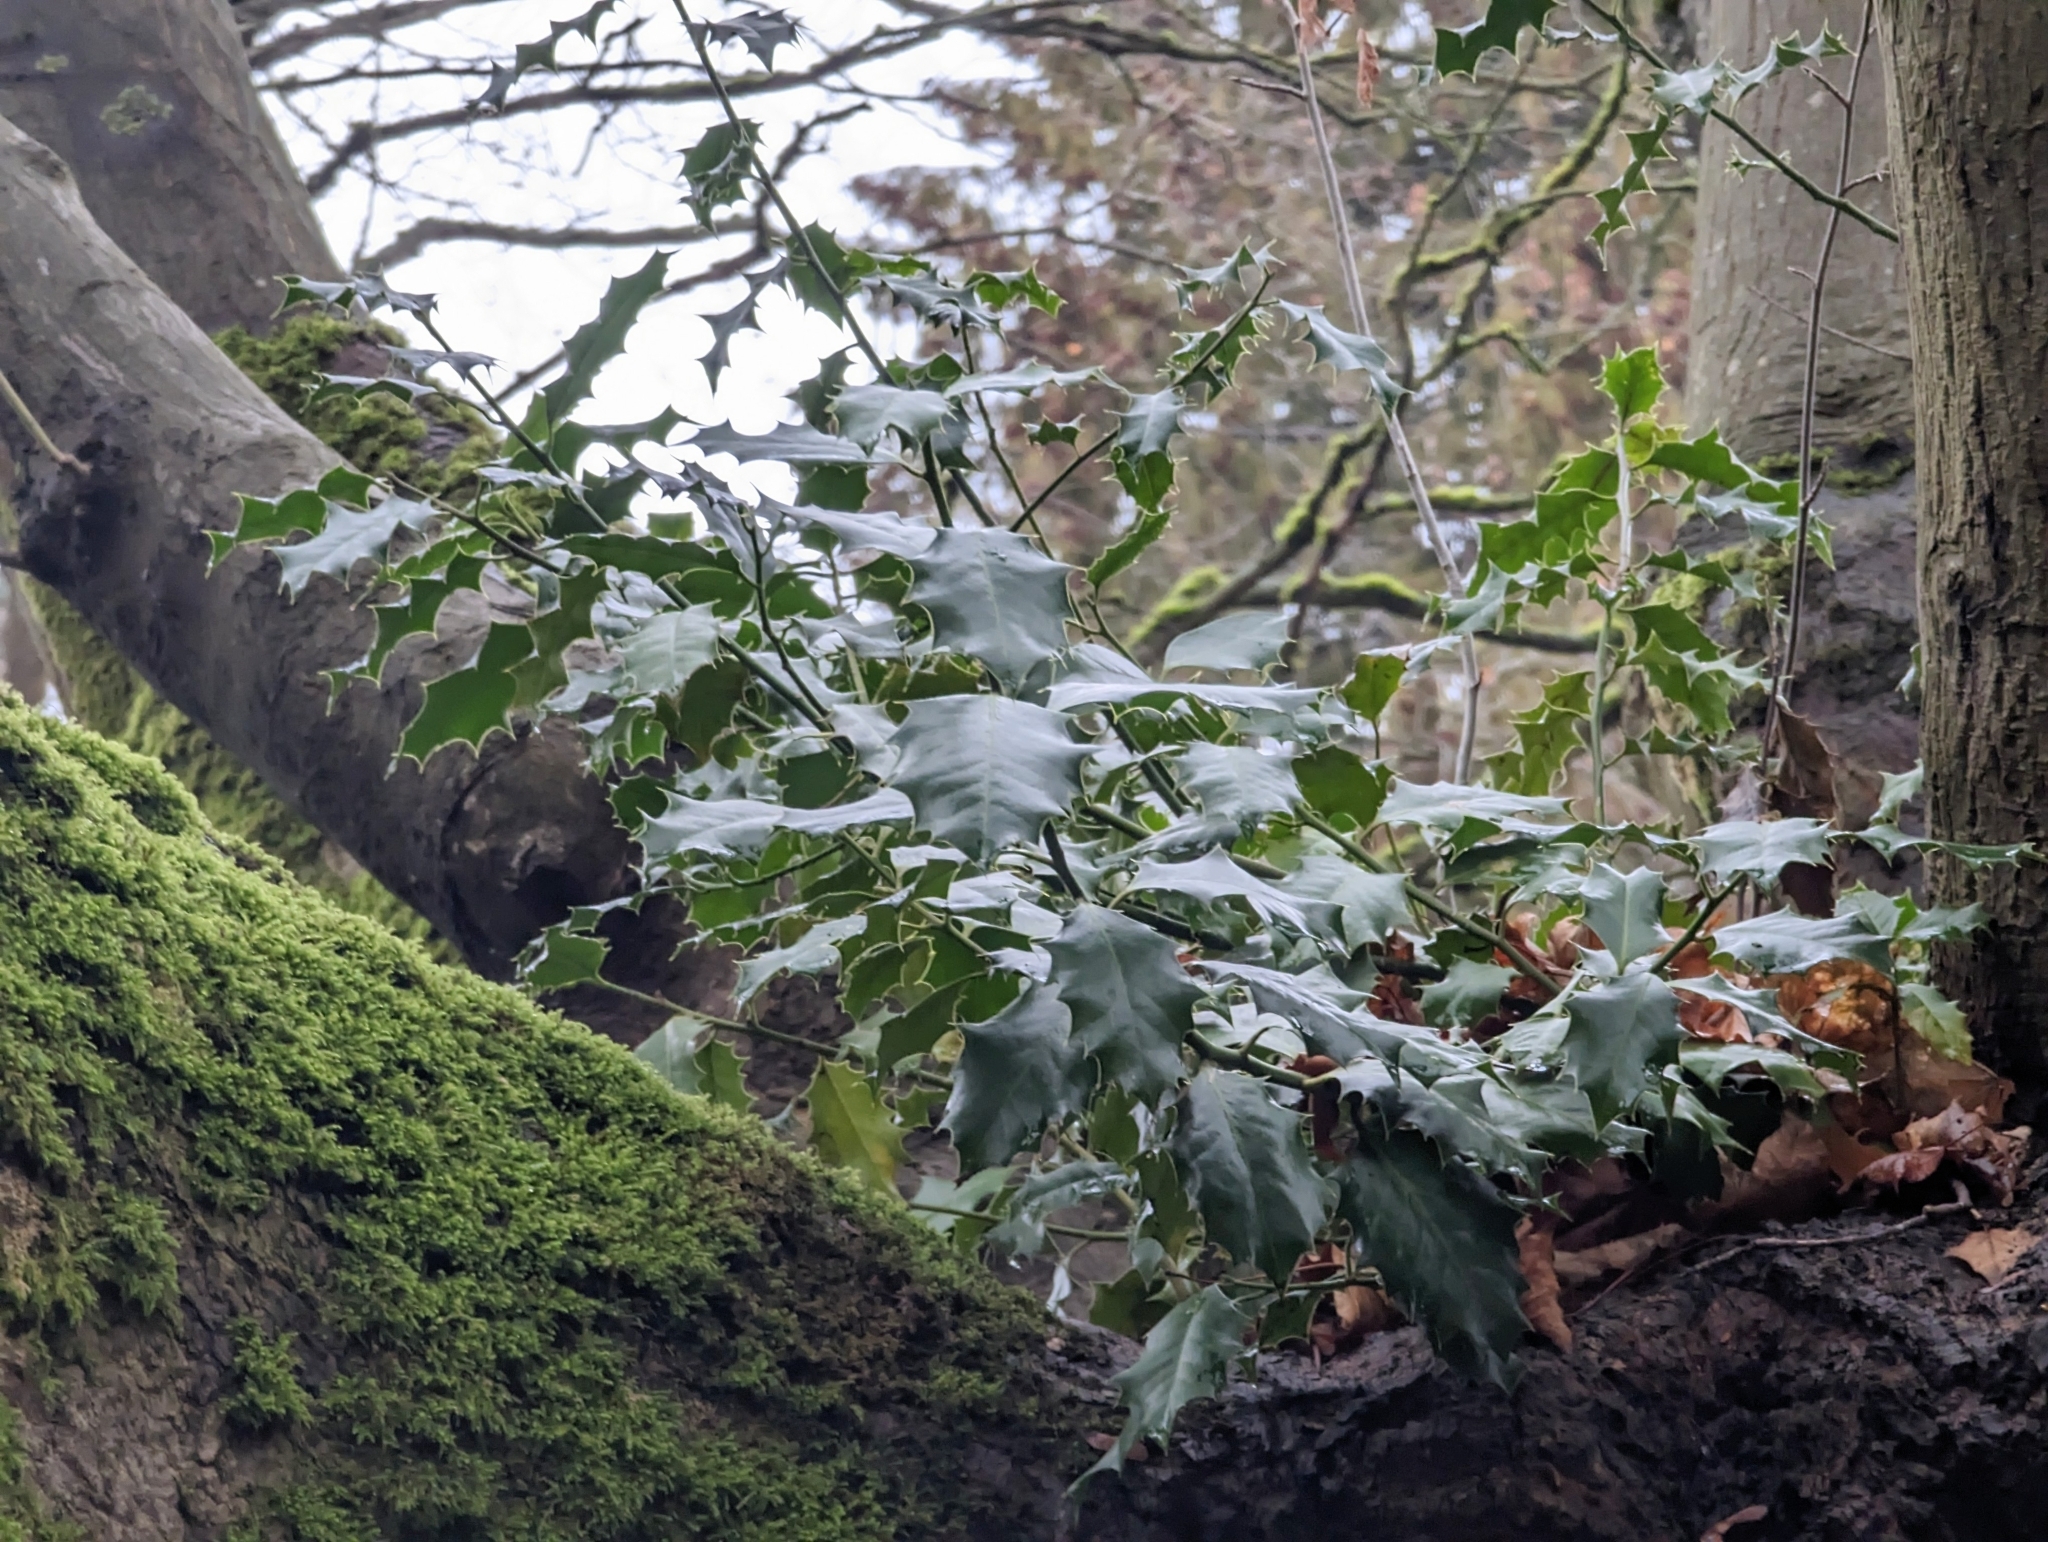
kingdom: Plantae
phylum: Tracheophyta
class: Magnoliopsida
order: Aquifoliales
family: Aquifoliaceae
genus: Ilex
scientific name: Ilex aquifolium
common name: English holly
